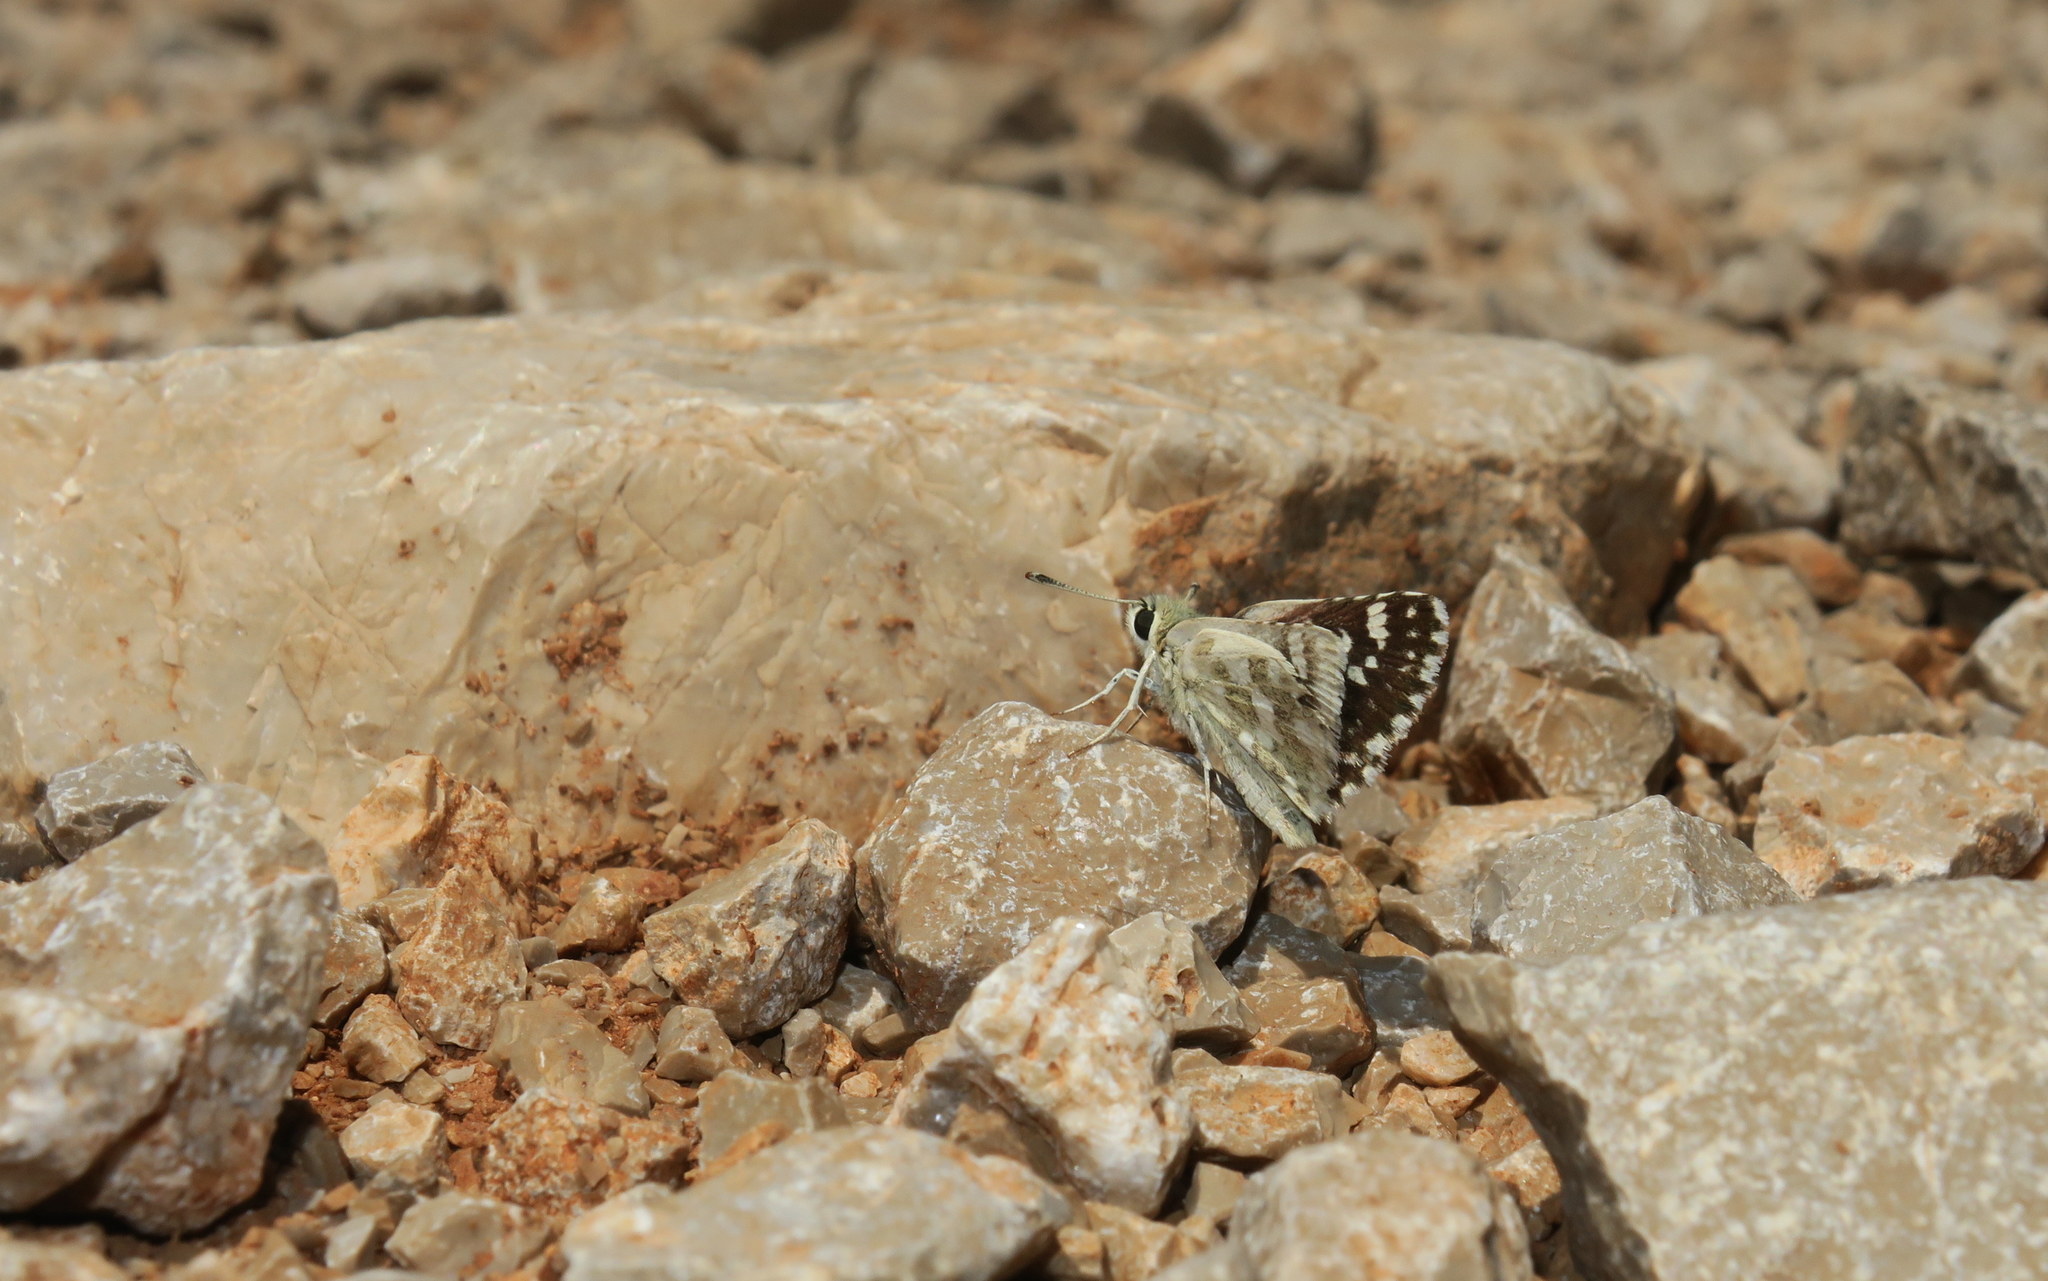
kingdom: Animalia
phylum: Arthropoda
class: Insecta
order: Lepidoptera
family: Hesperiidae
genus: Spialia
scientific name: Spialia phlomidis
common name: Persian skipper
